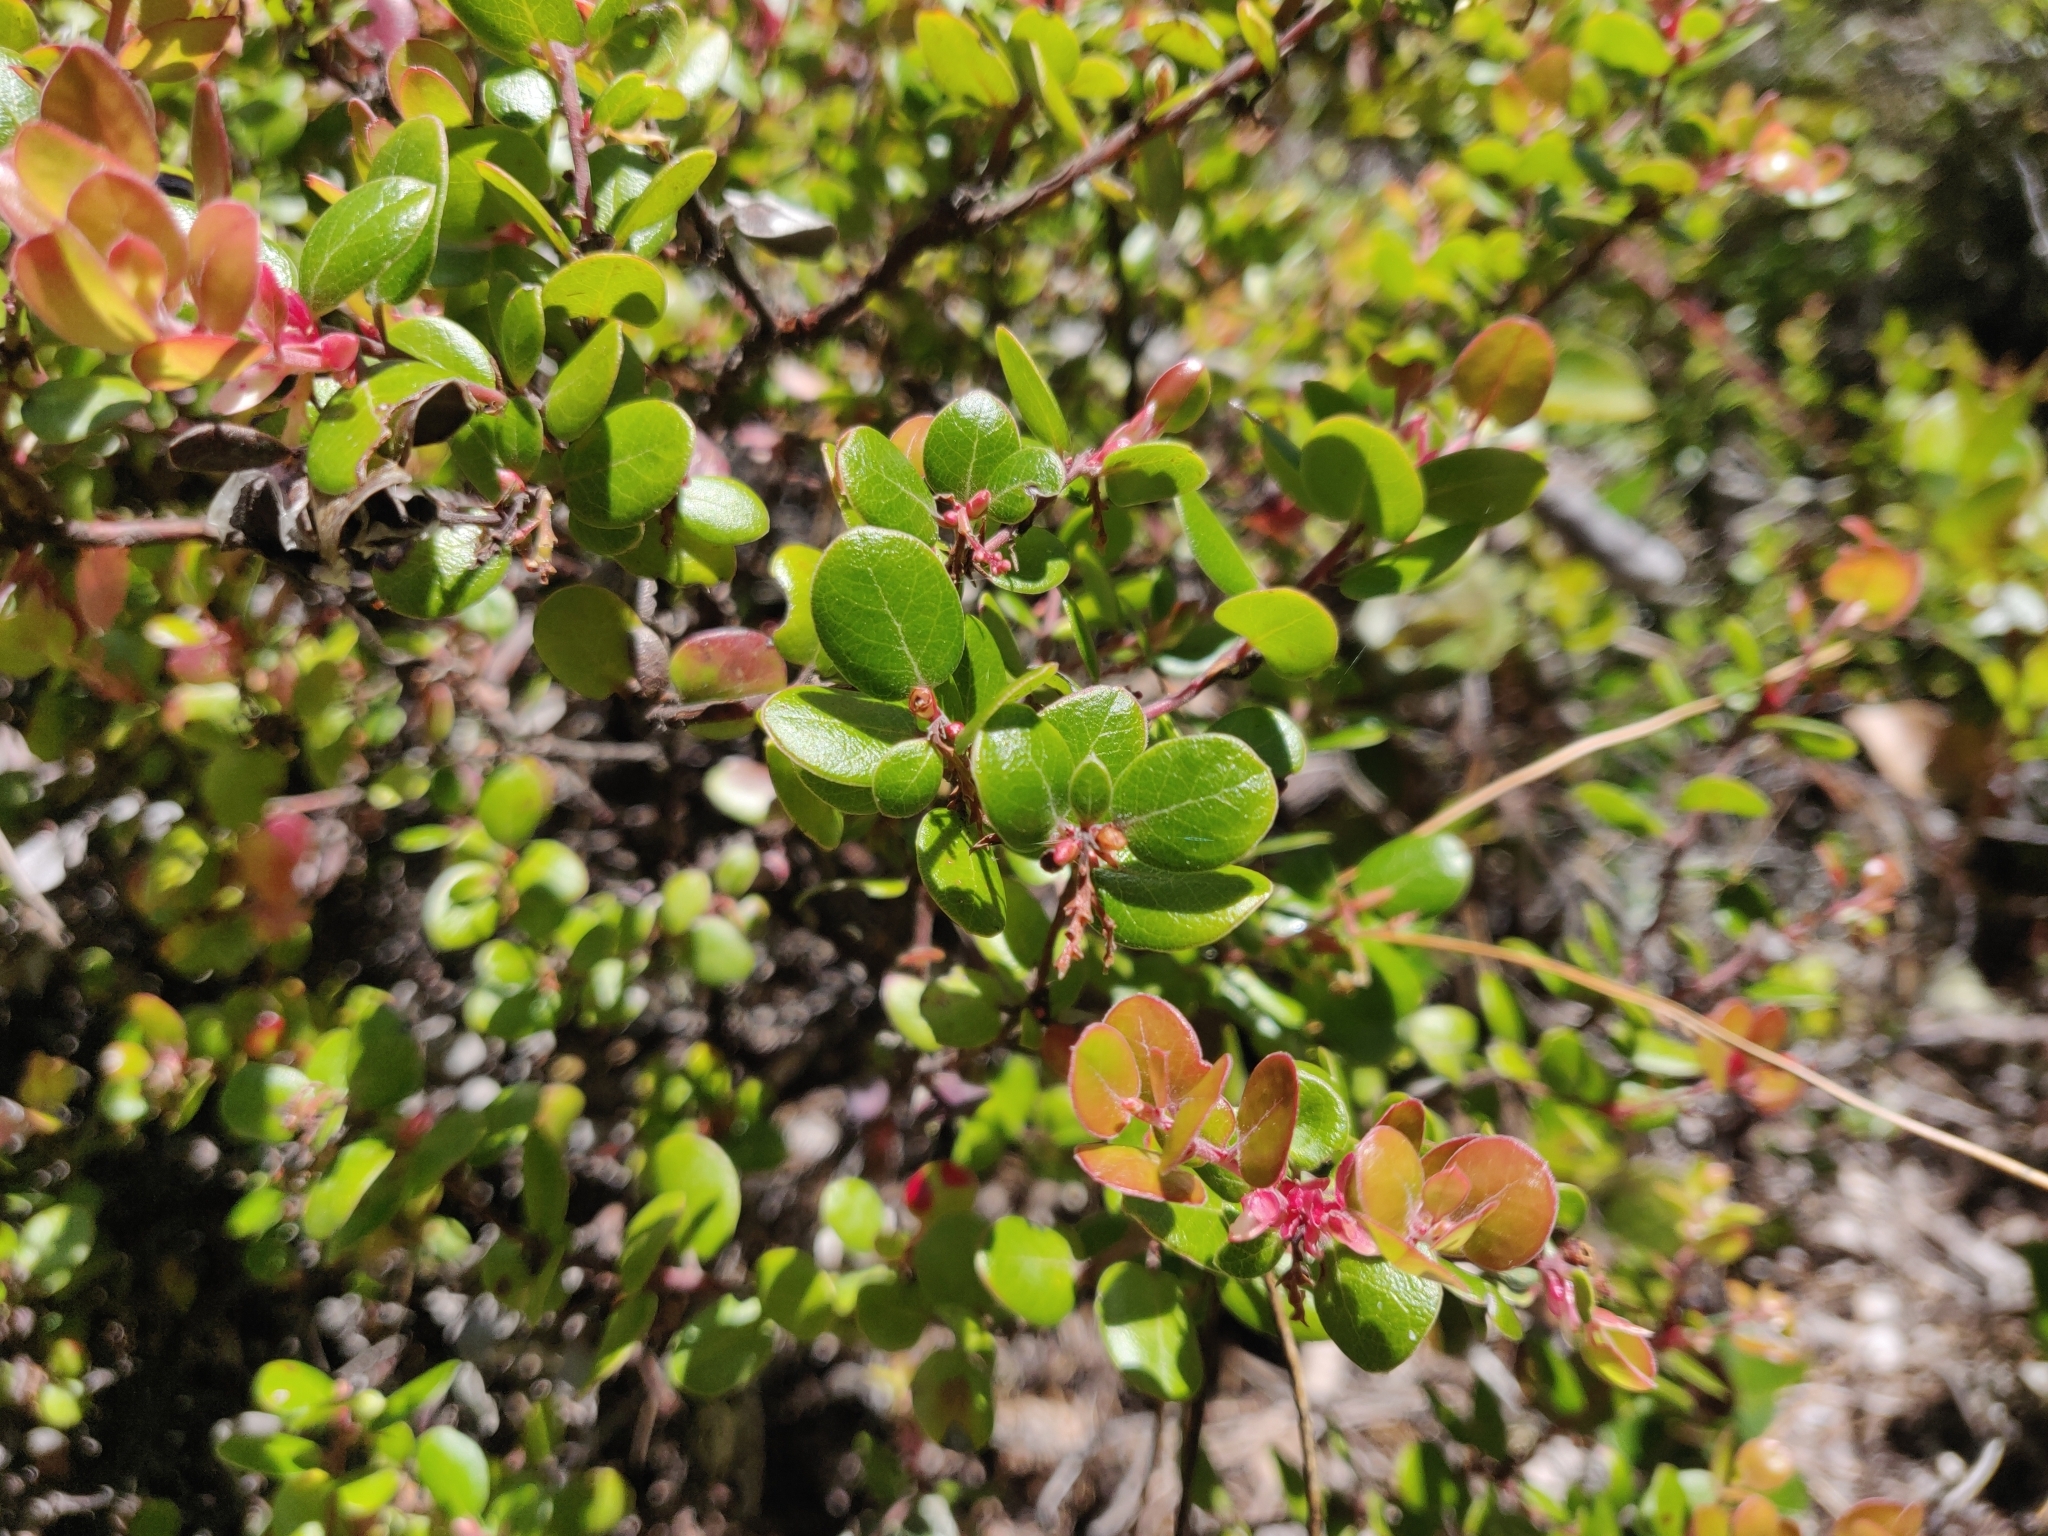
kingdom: Plantae
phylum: Tracheophyta
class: Magnoliopsida
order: Ericales
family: Ericaceae
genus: Arctostaphylos
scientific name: Arctostaphylos nummularia
